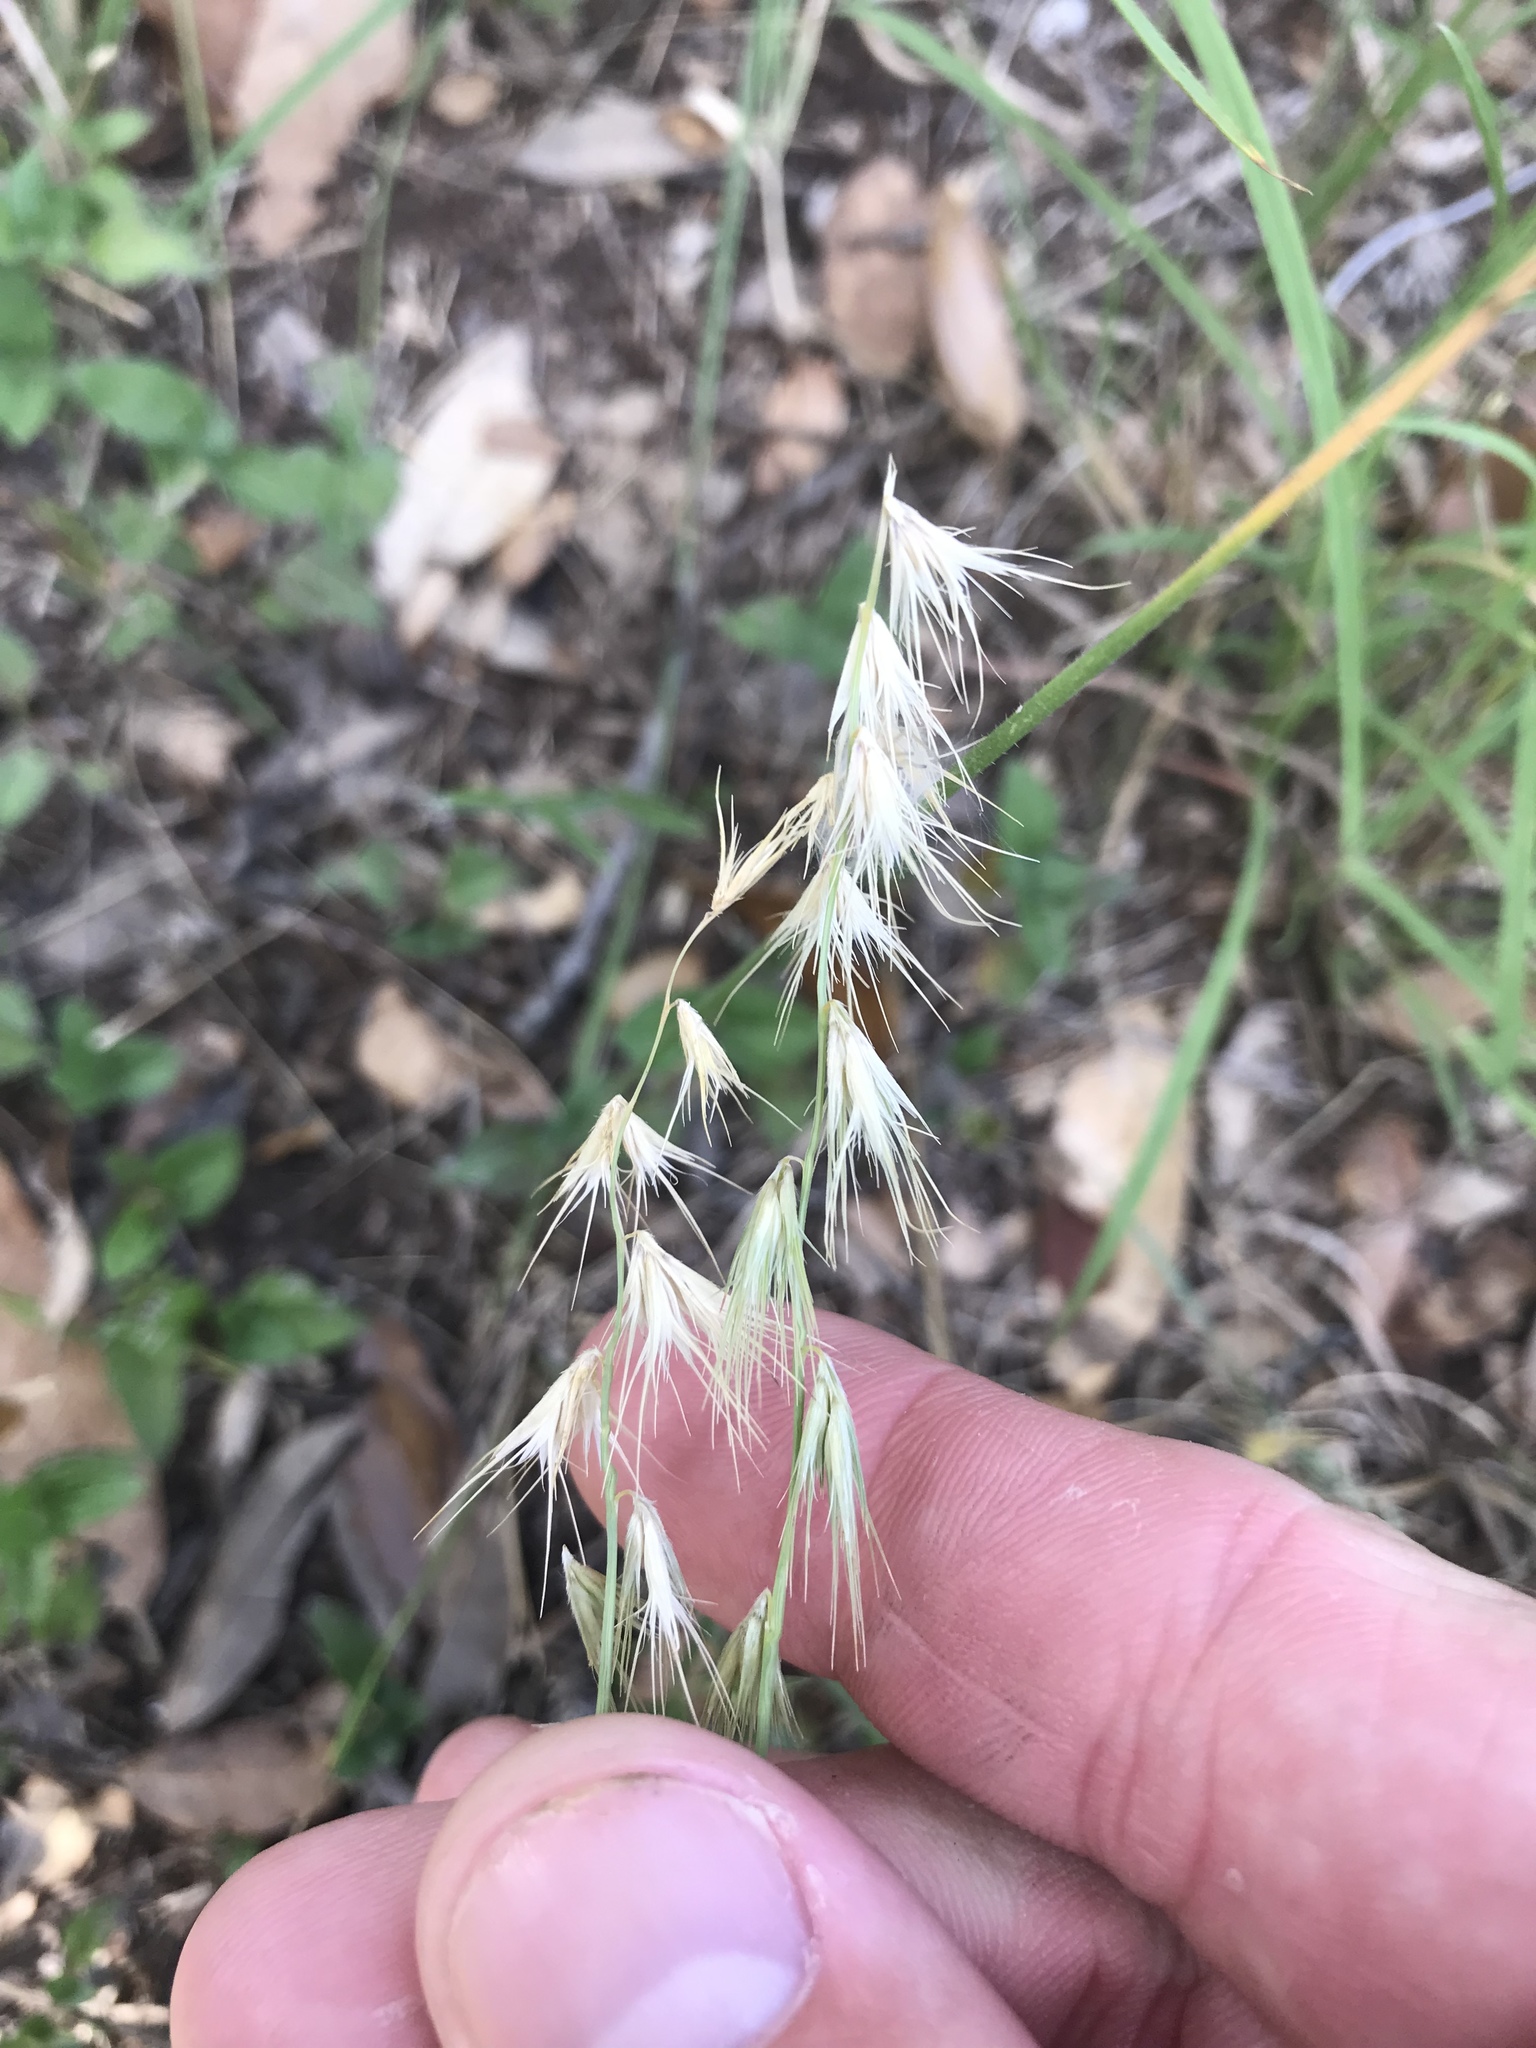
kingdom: Plantae
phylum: Tracheophyta
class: Liliopsida
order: Poales
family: Poaceae
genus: Bouteloua
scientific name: Bouteloua rigidiseta
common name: Texas grama
